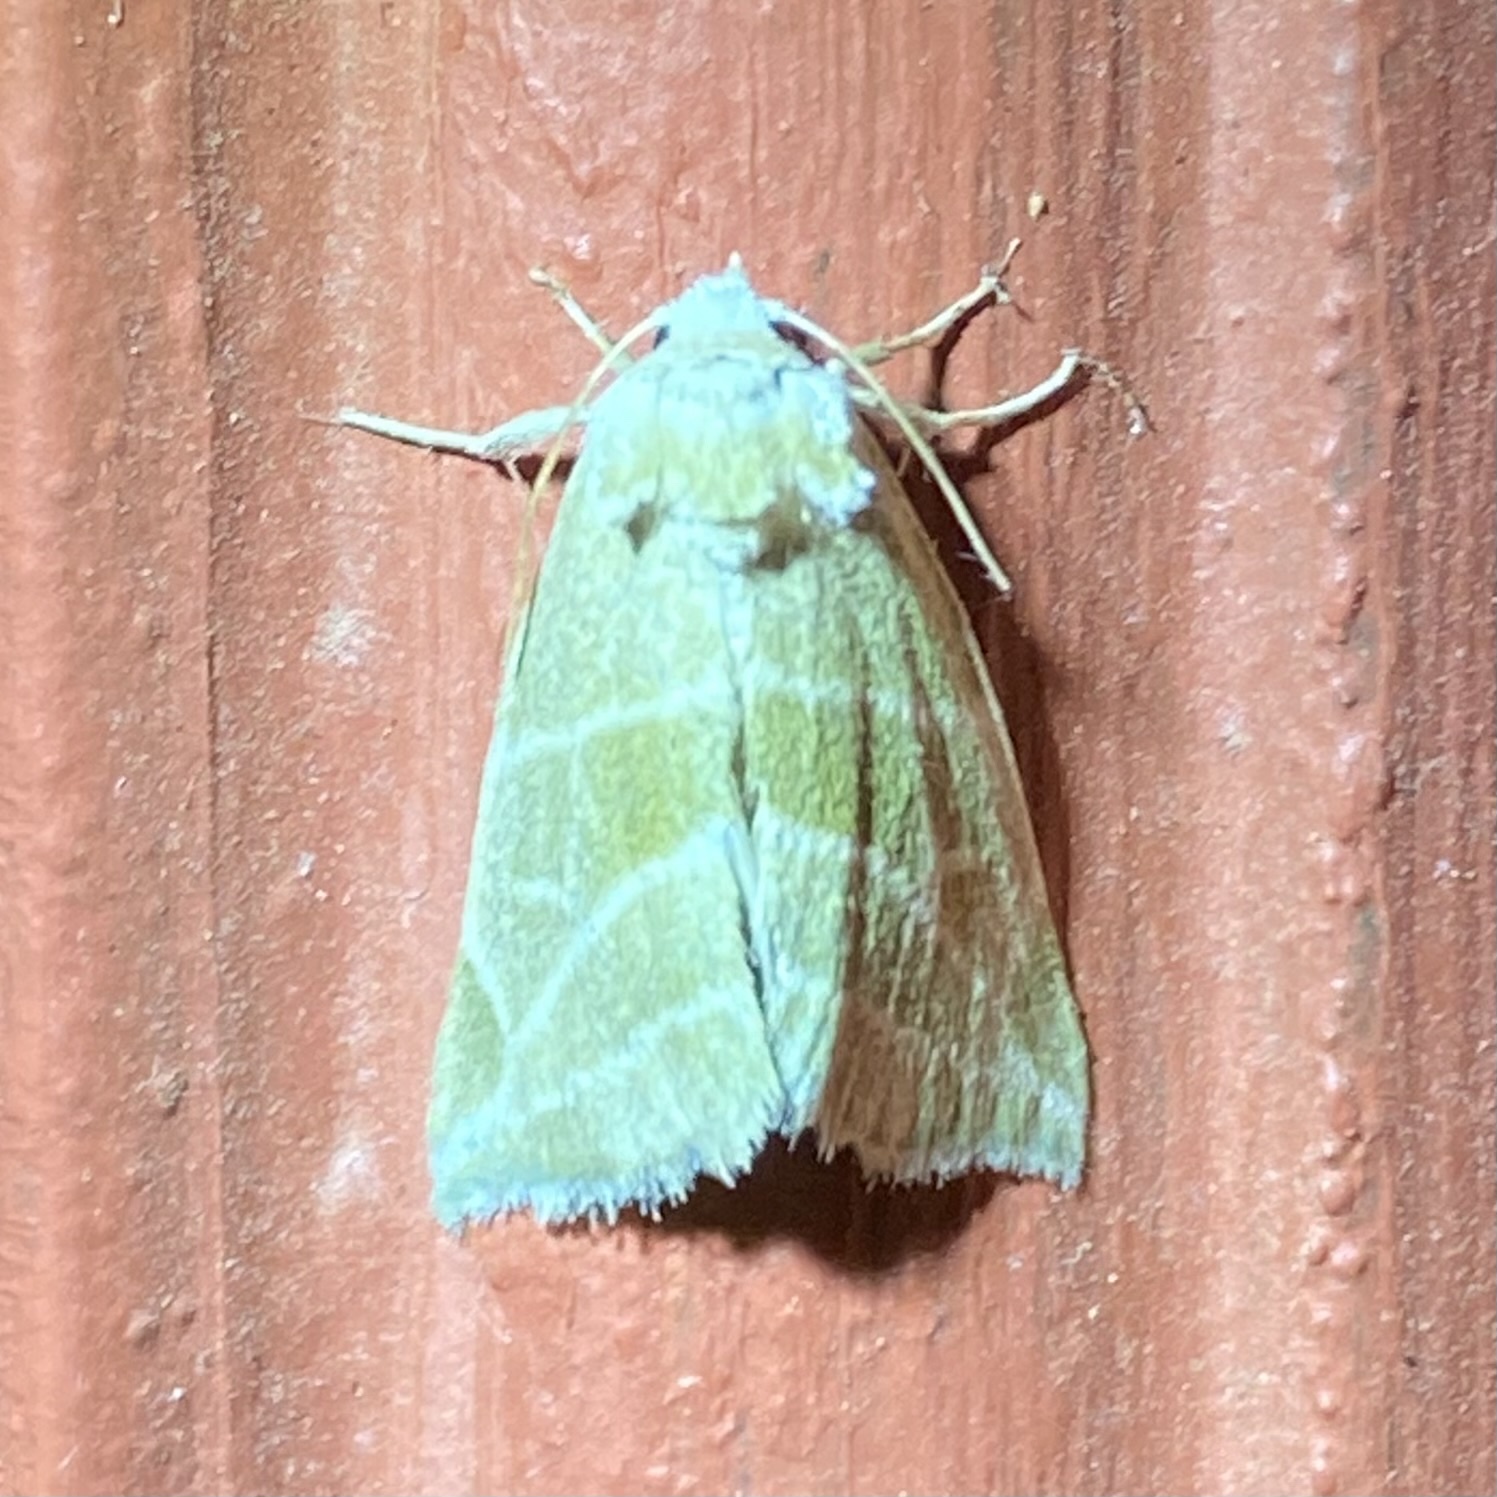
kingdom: Animalia
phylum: Arthropoda
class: Insecta
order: Lepidoptera
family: Noctuidae
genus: Plagiomimicus
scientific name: Plagiomimicus mimica
